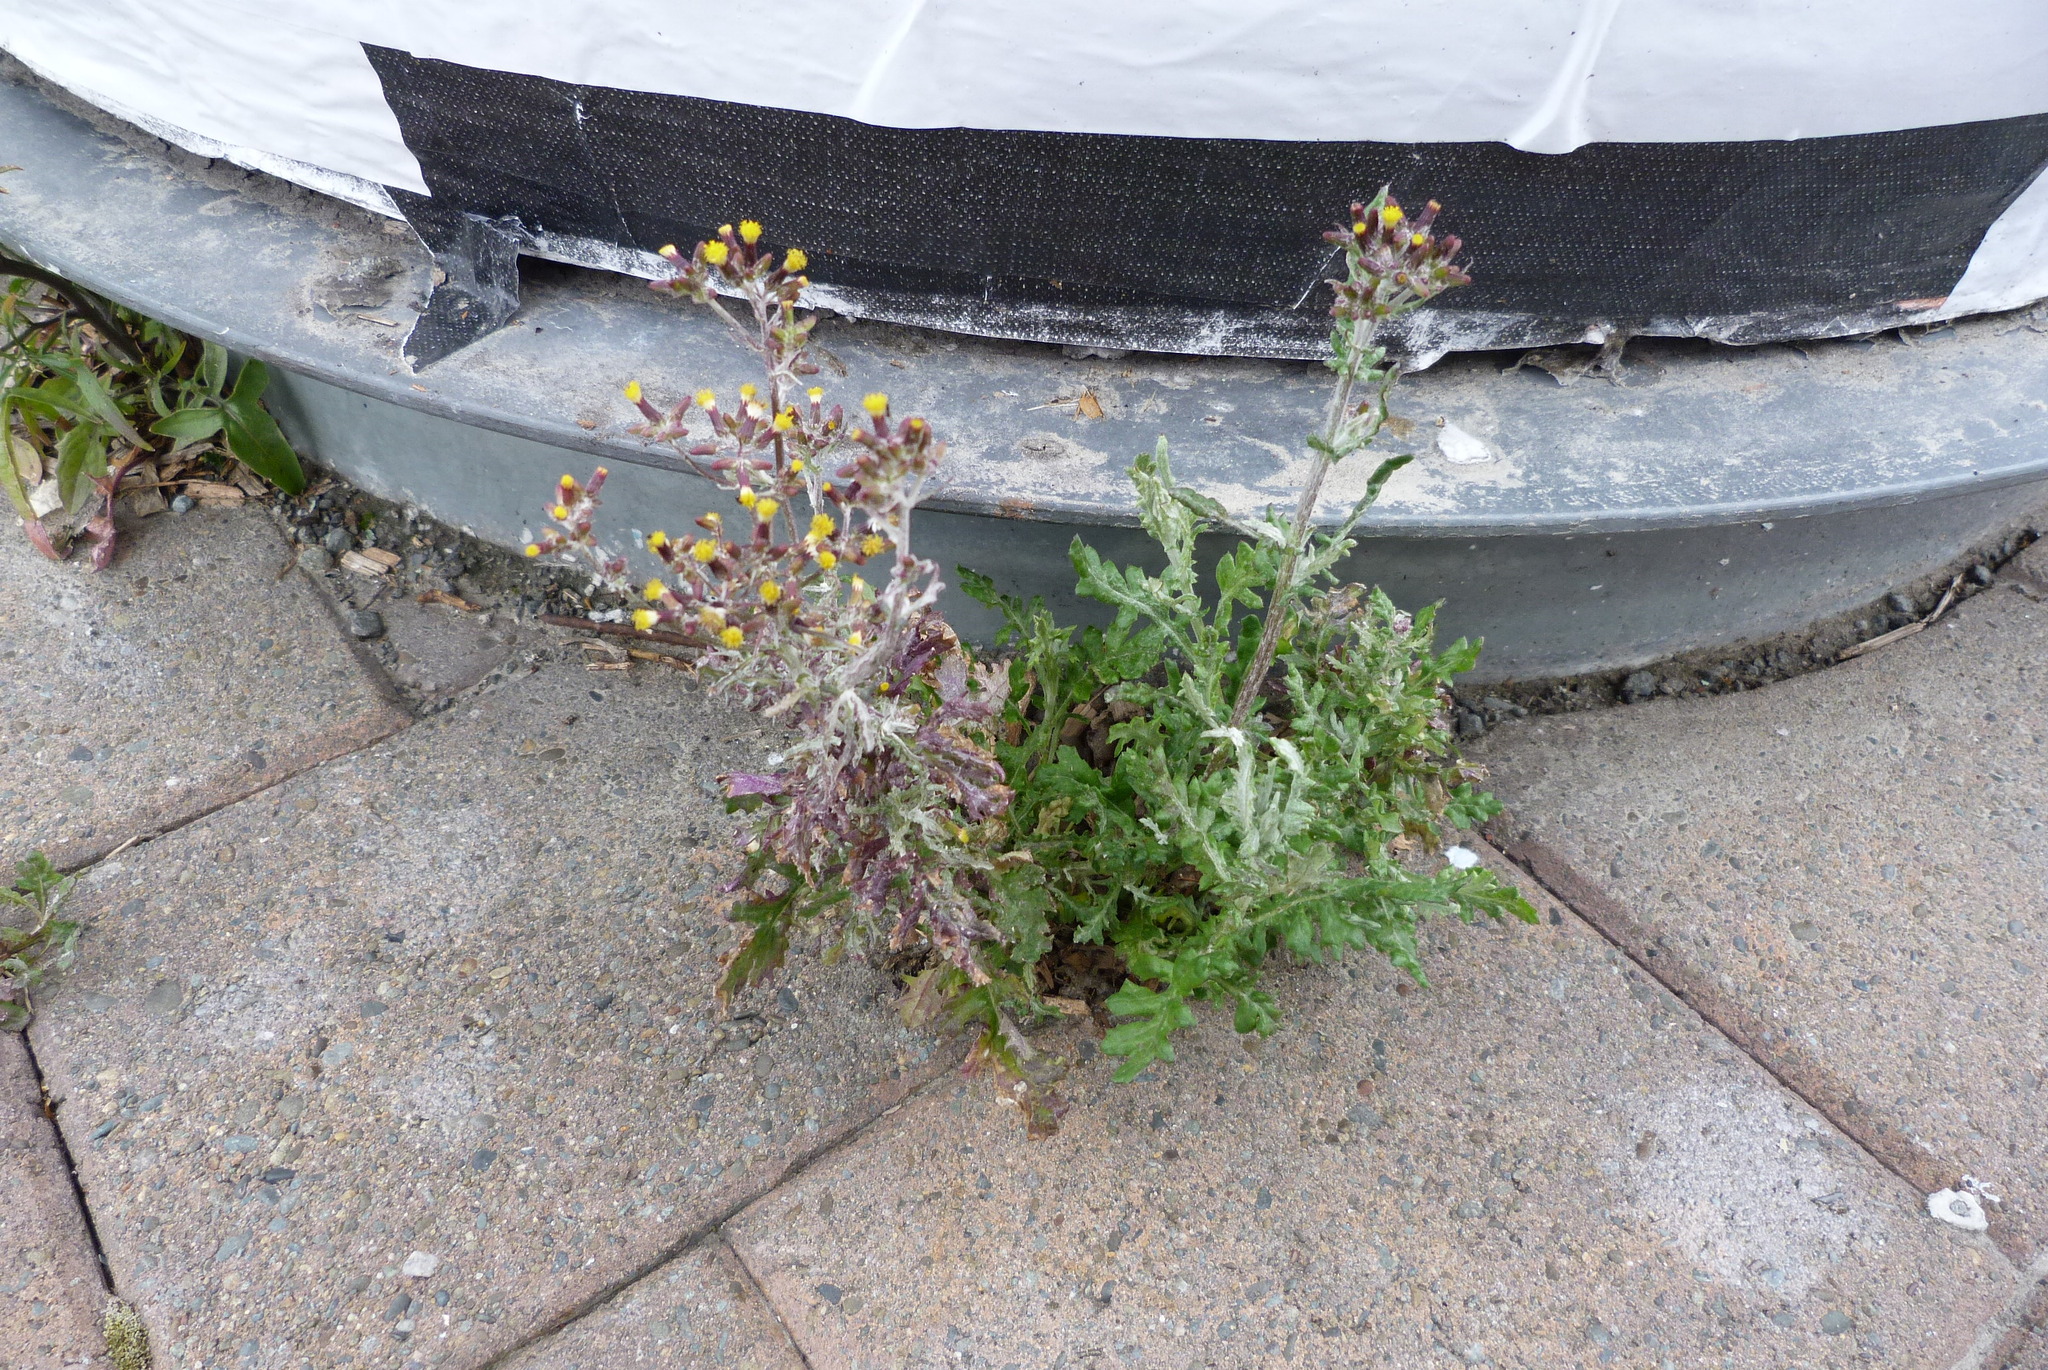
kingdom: Plantae
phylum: Tracheophyta
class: Magnoliopsida
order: Asterales
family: Asteraceae
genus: Senecio
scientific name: Senecio glomeratus
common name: Cutleaf burnweed
